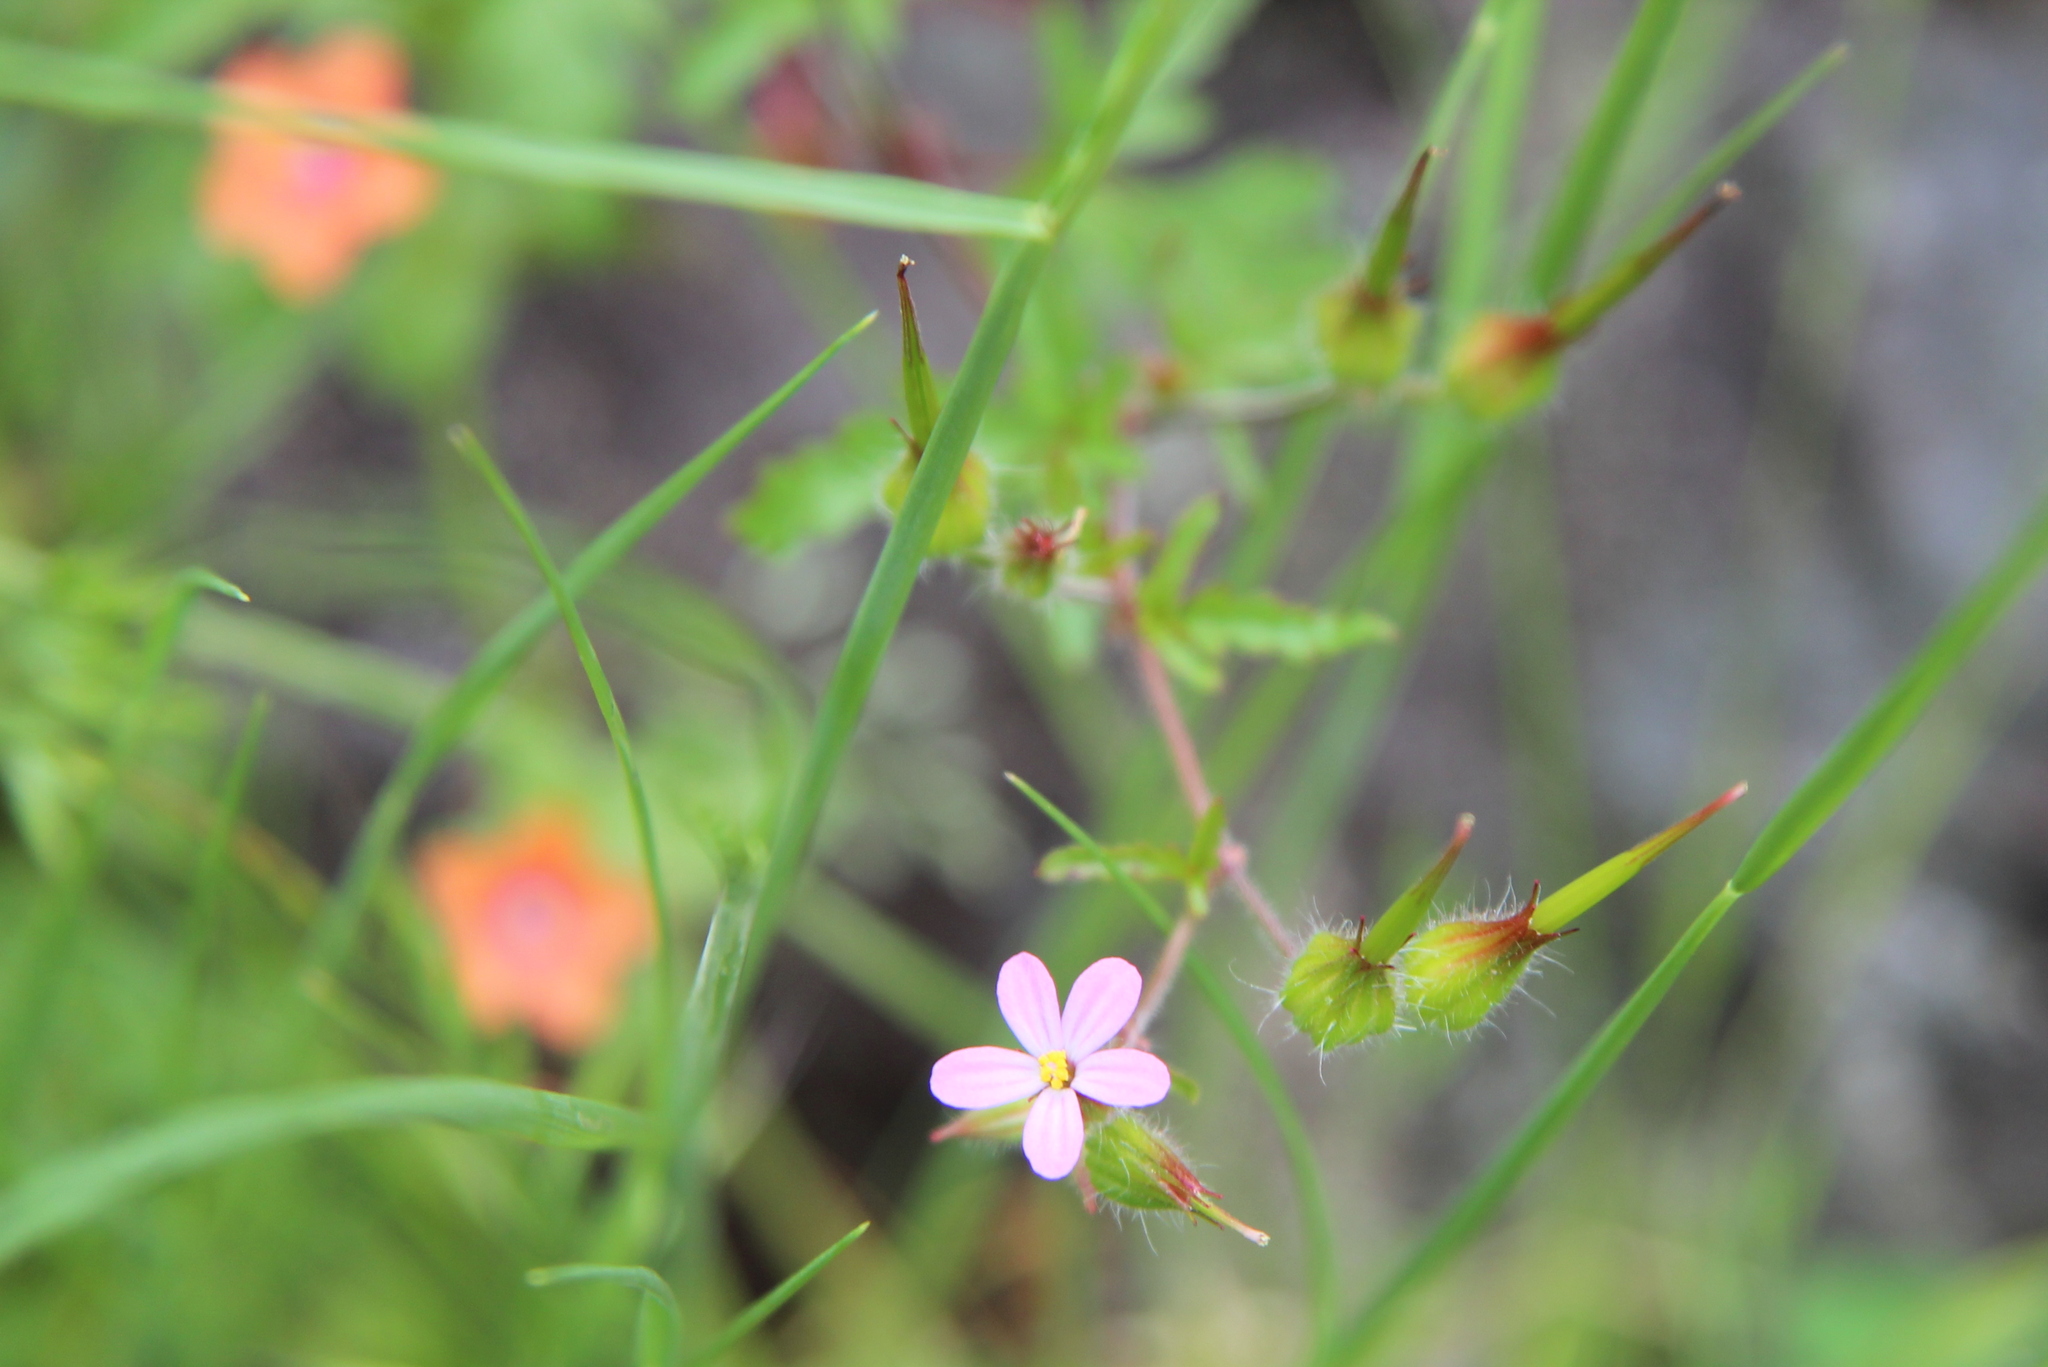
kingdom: Plantae
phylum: Tracheophyta
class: Magnoliopsida
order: Geraniales
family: Geraniaceae
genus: Geranium
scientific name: Geranium purpureum
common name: Little-robin
